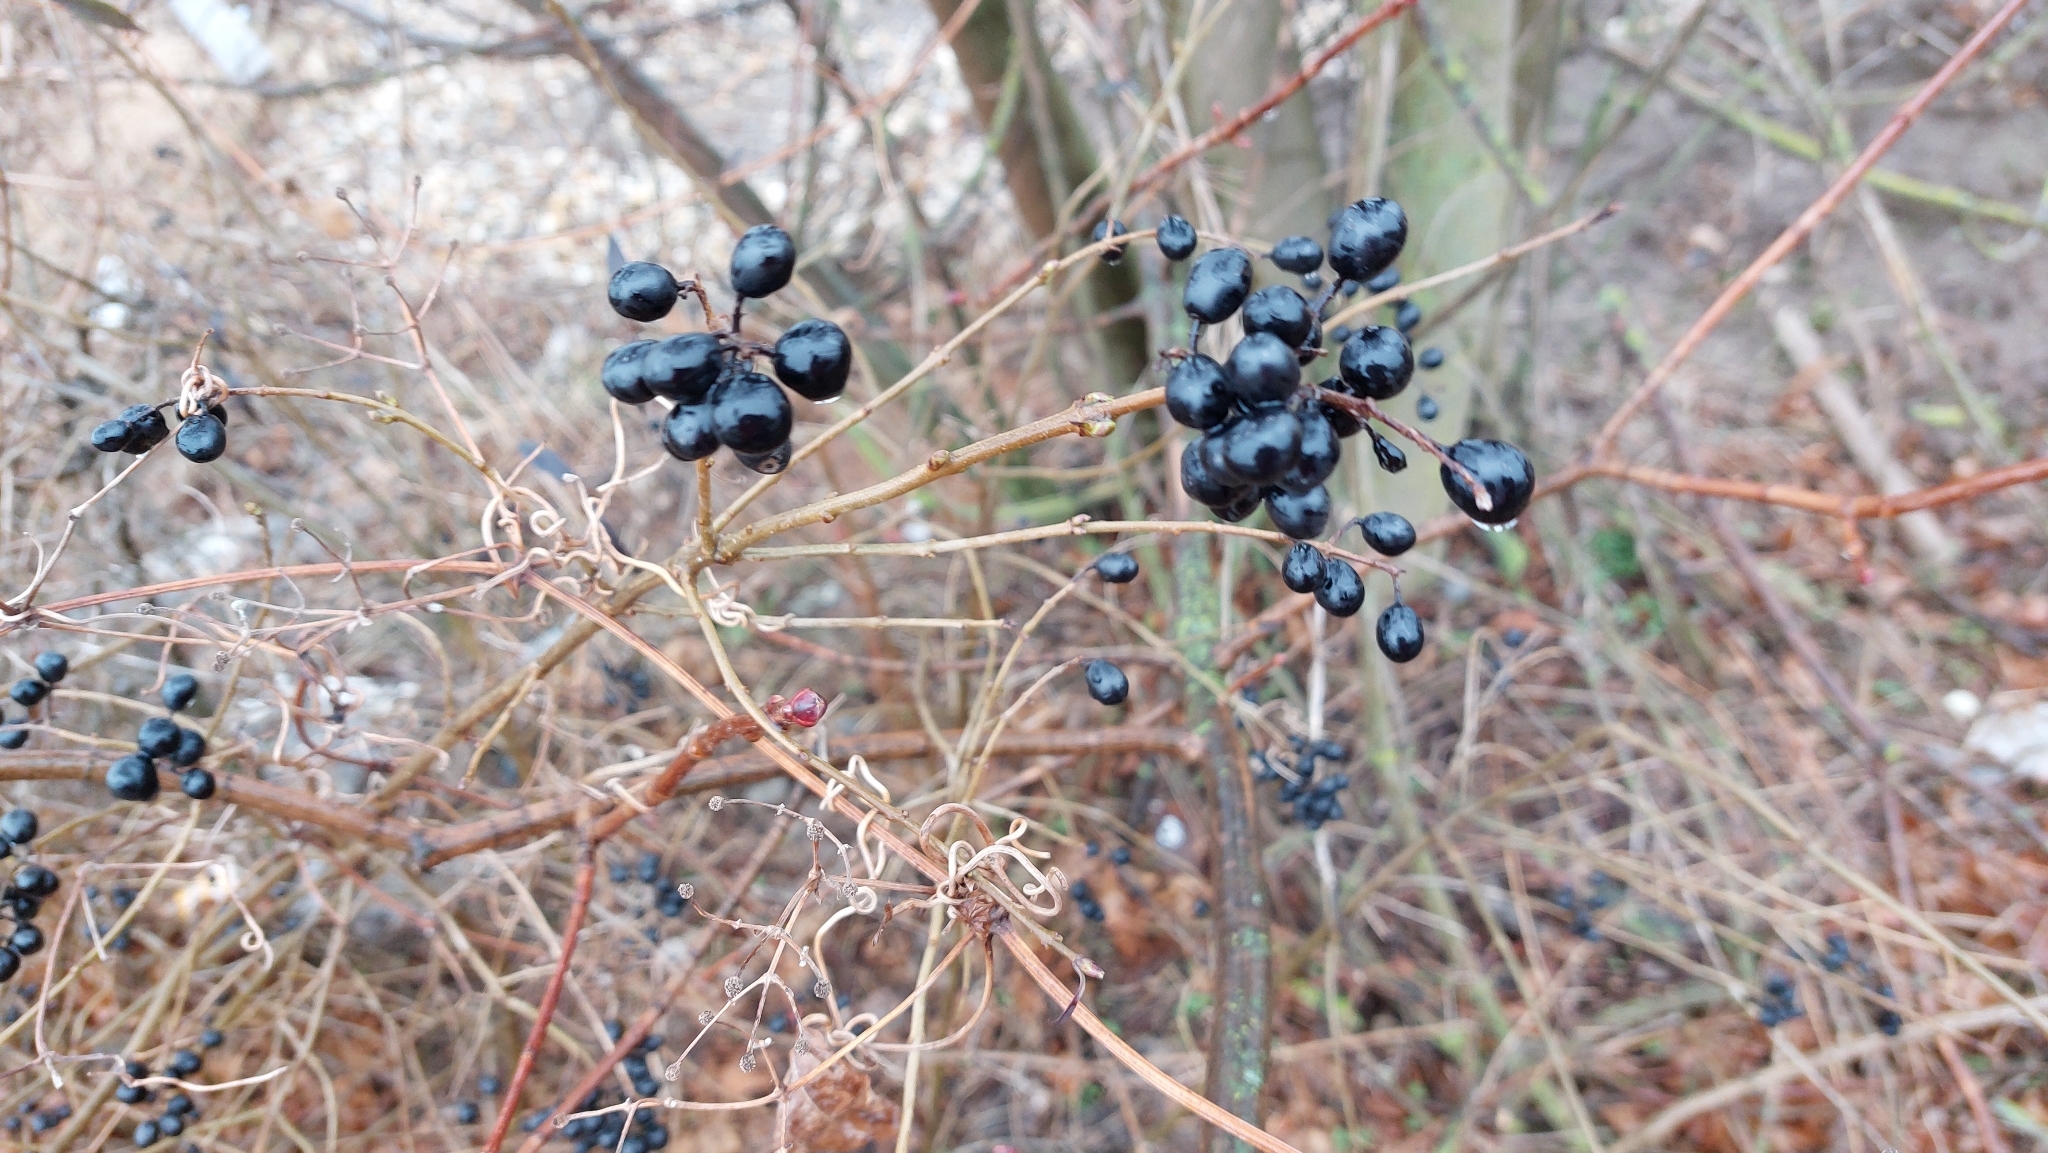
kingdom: Plantae
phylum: Tracheophyta
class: Magnoliopsida
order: Lamiales
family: Oleaceae
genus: Ligustrum
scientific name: Ligustrum vulgare
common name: Wild privet
